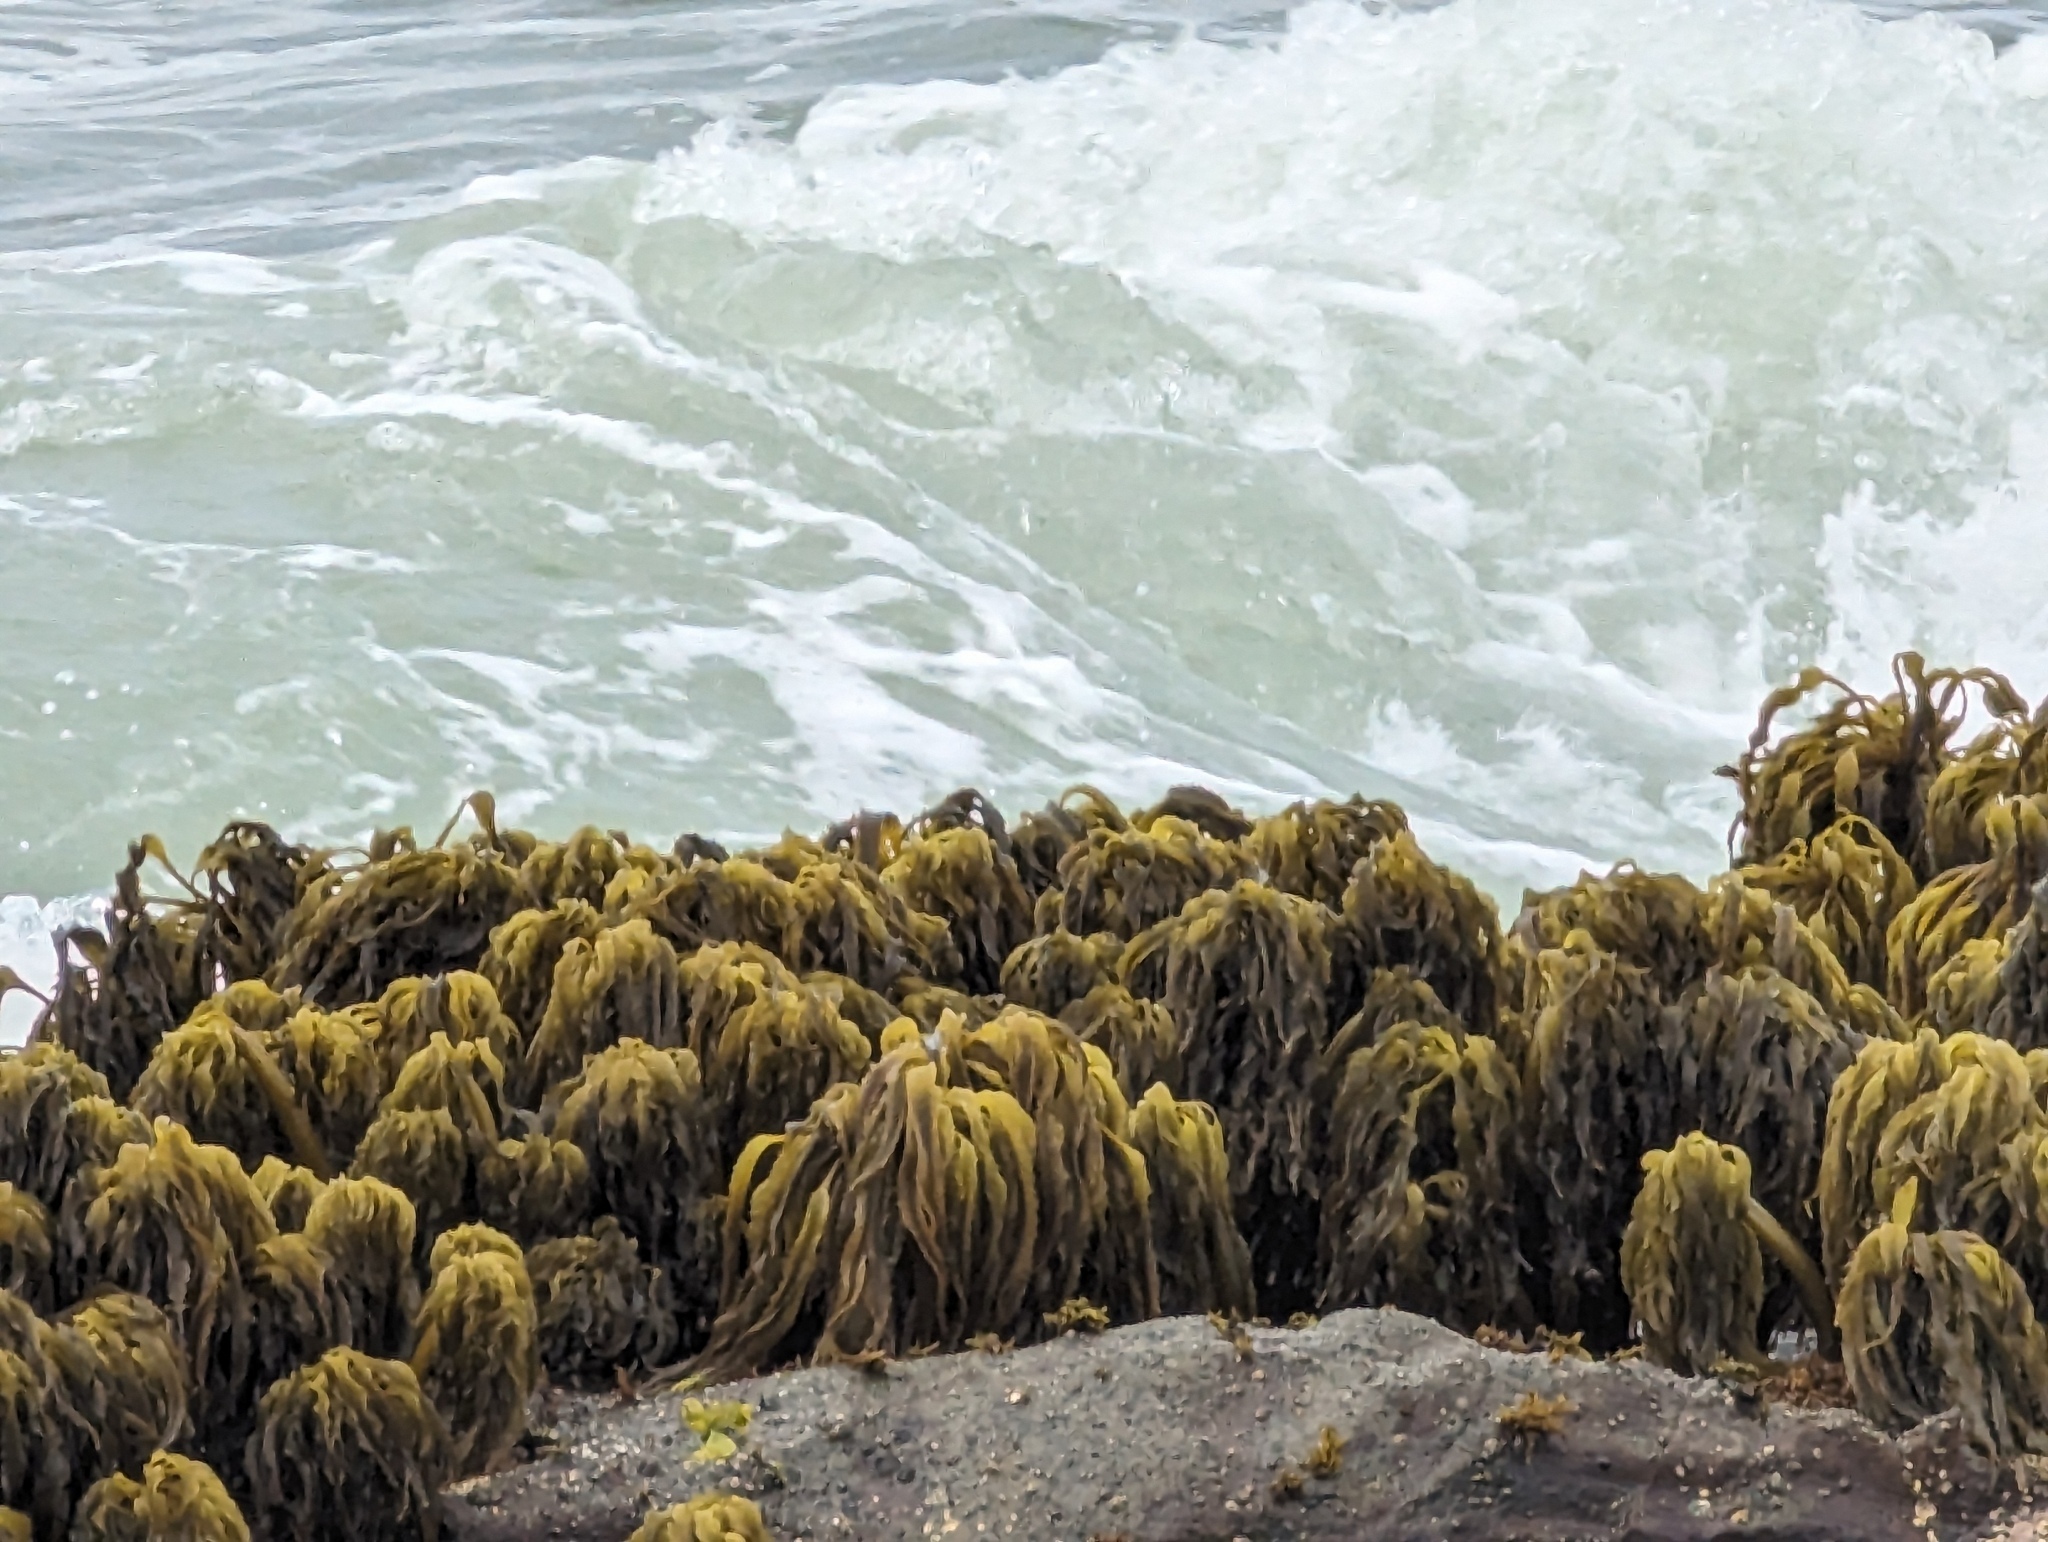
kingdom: Chromista
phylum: Ochrophyta
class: Phaeophyceae
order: Laminariales
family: Laminariaceae
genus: Postelsia
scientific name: Postelsia palmiformis
